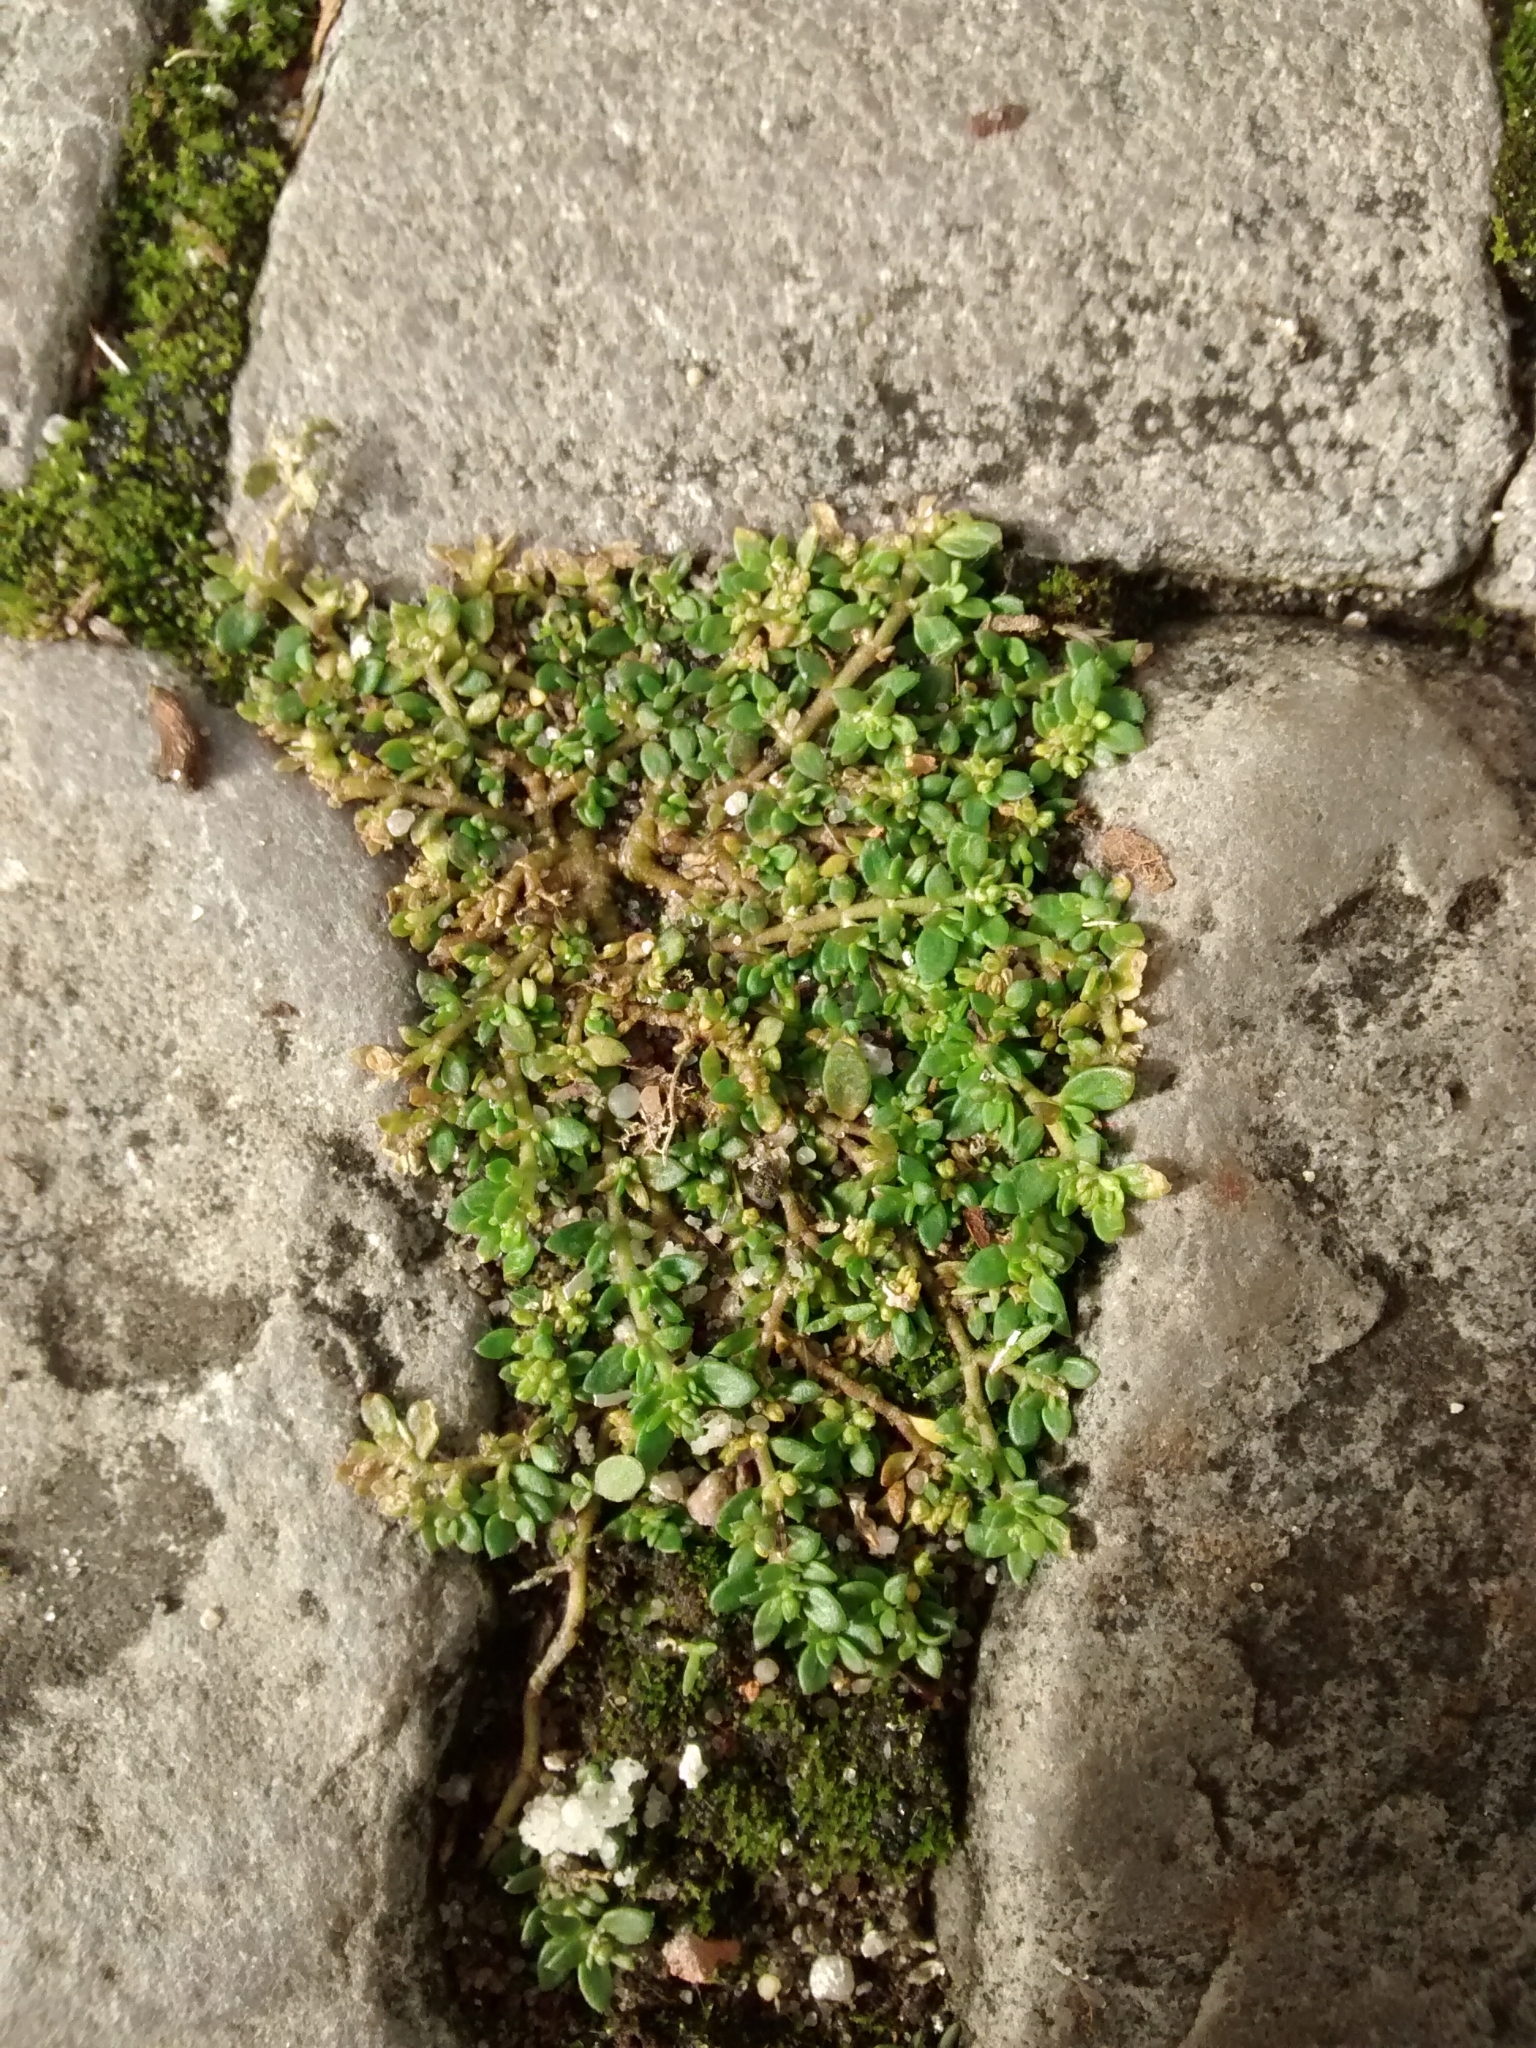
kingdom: Plantae
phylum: Tracheophyta
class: Magnoliopsida
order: Caryophyllales
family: Caryophyllaceae
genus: Herniaria
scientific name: Herniaria glabra
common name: Smooth rupturewort
